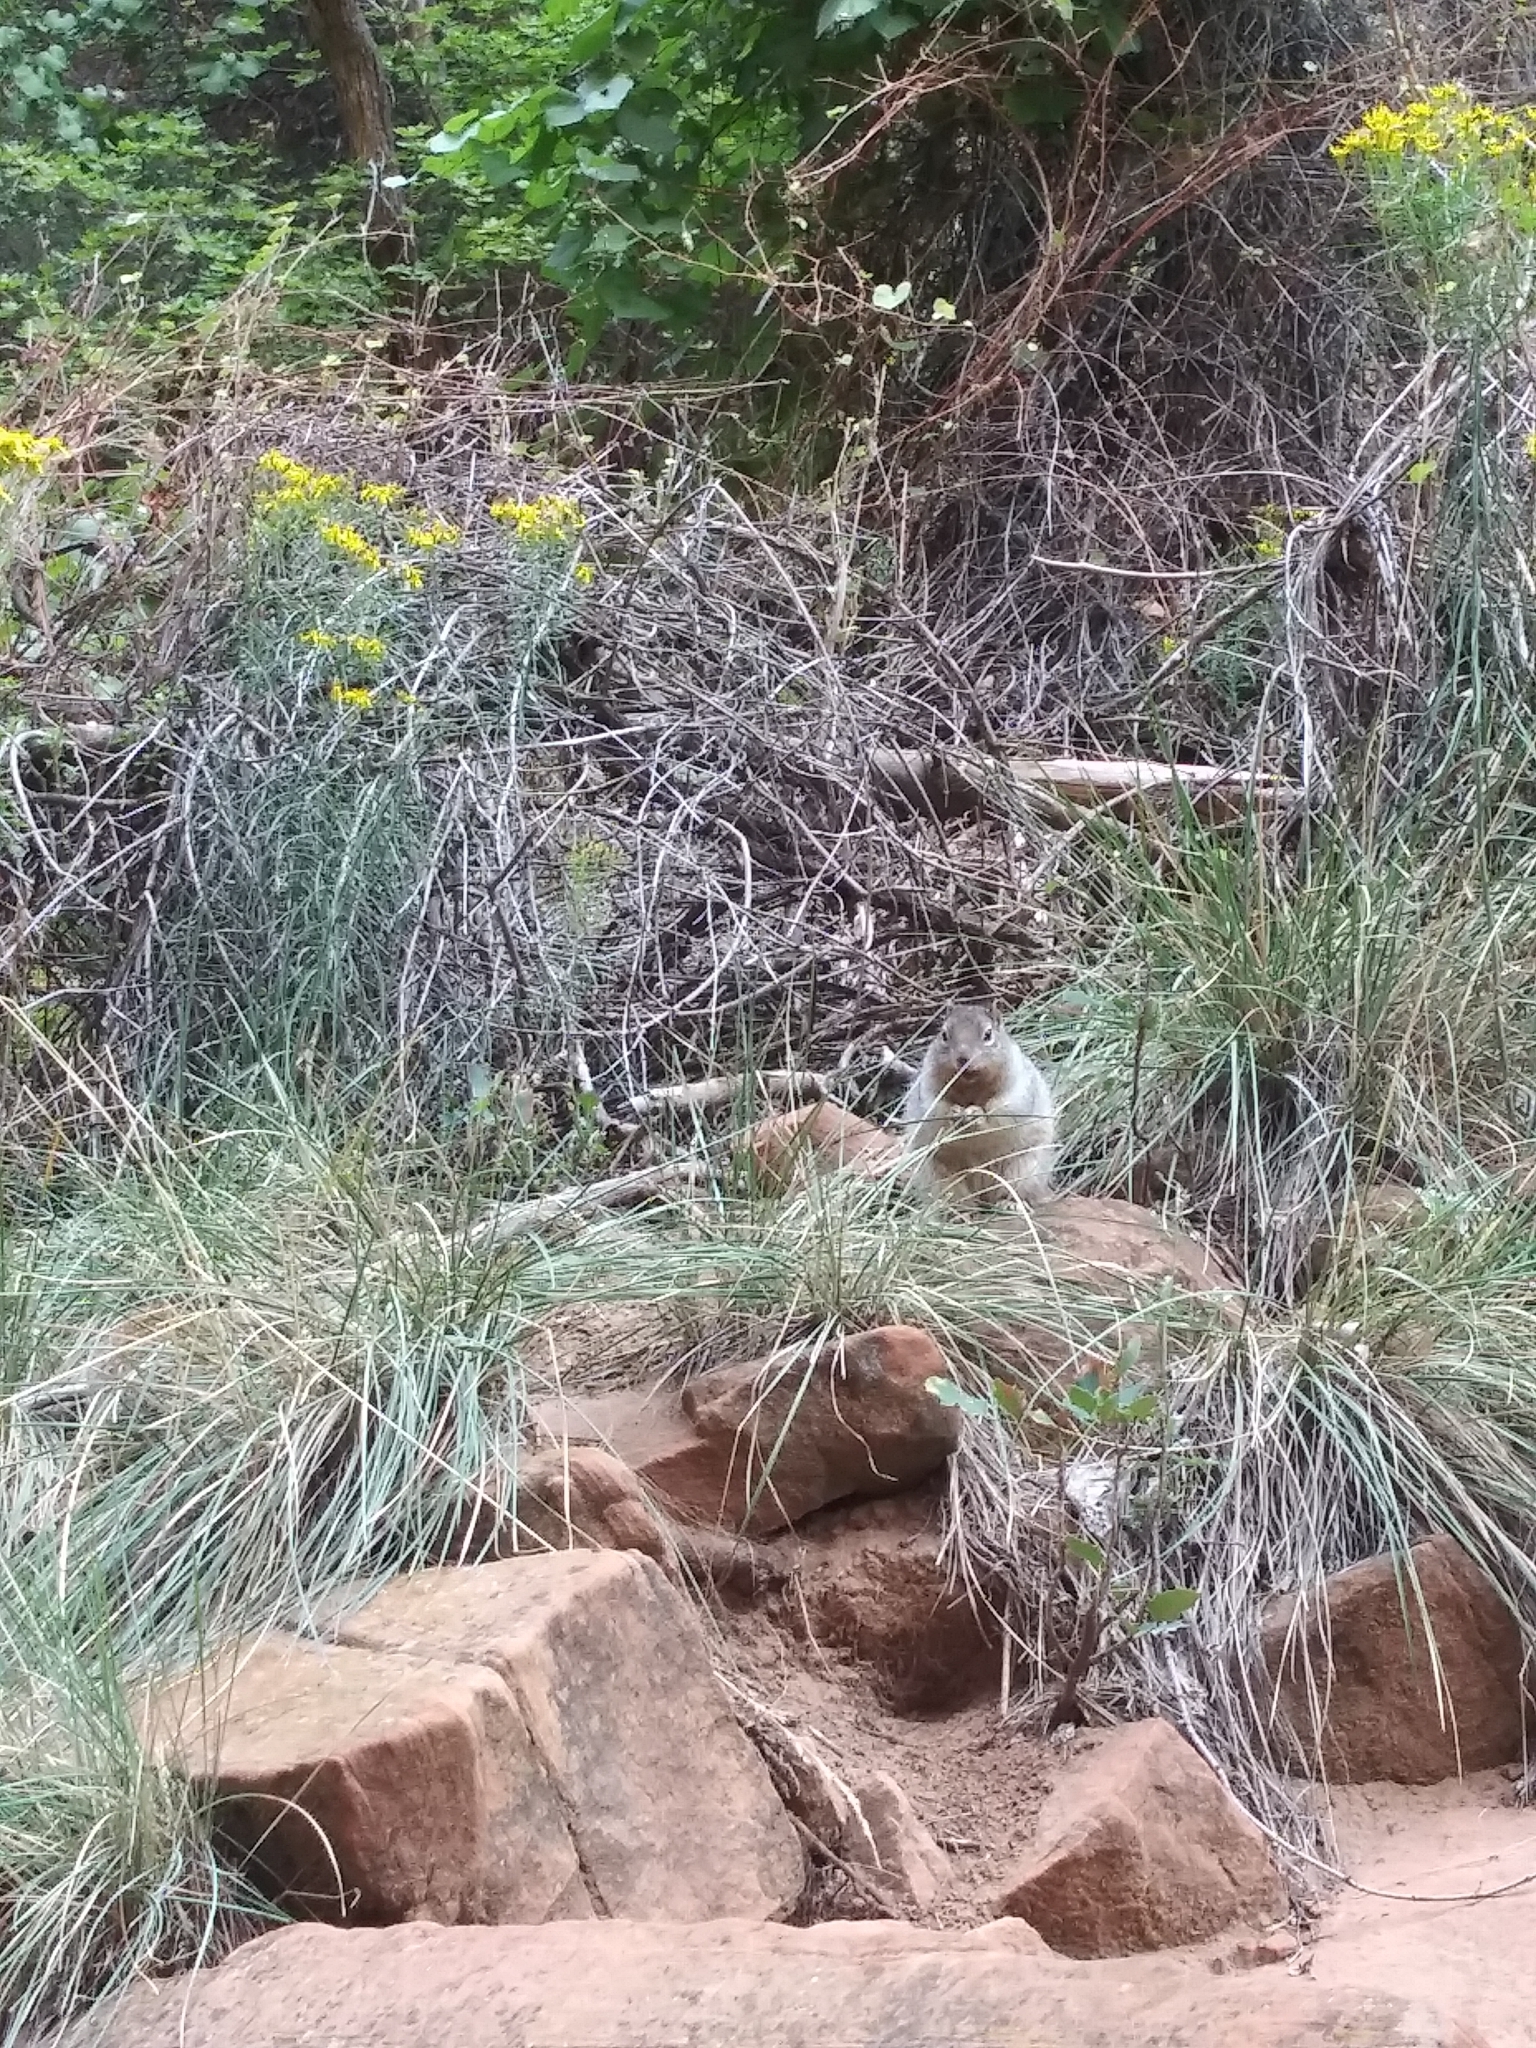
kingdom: Animalia
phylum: Chordata
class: Mammalia
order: Rodentia
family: Sciuridae
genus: Otospermophilus
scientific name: Otospermophilus variegatus
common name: Rock squirrel
